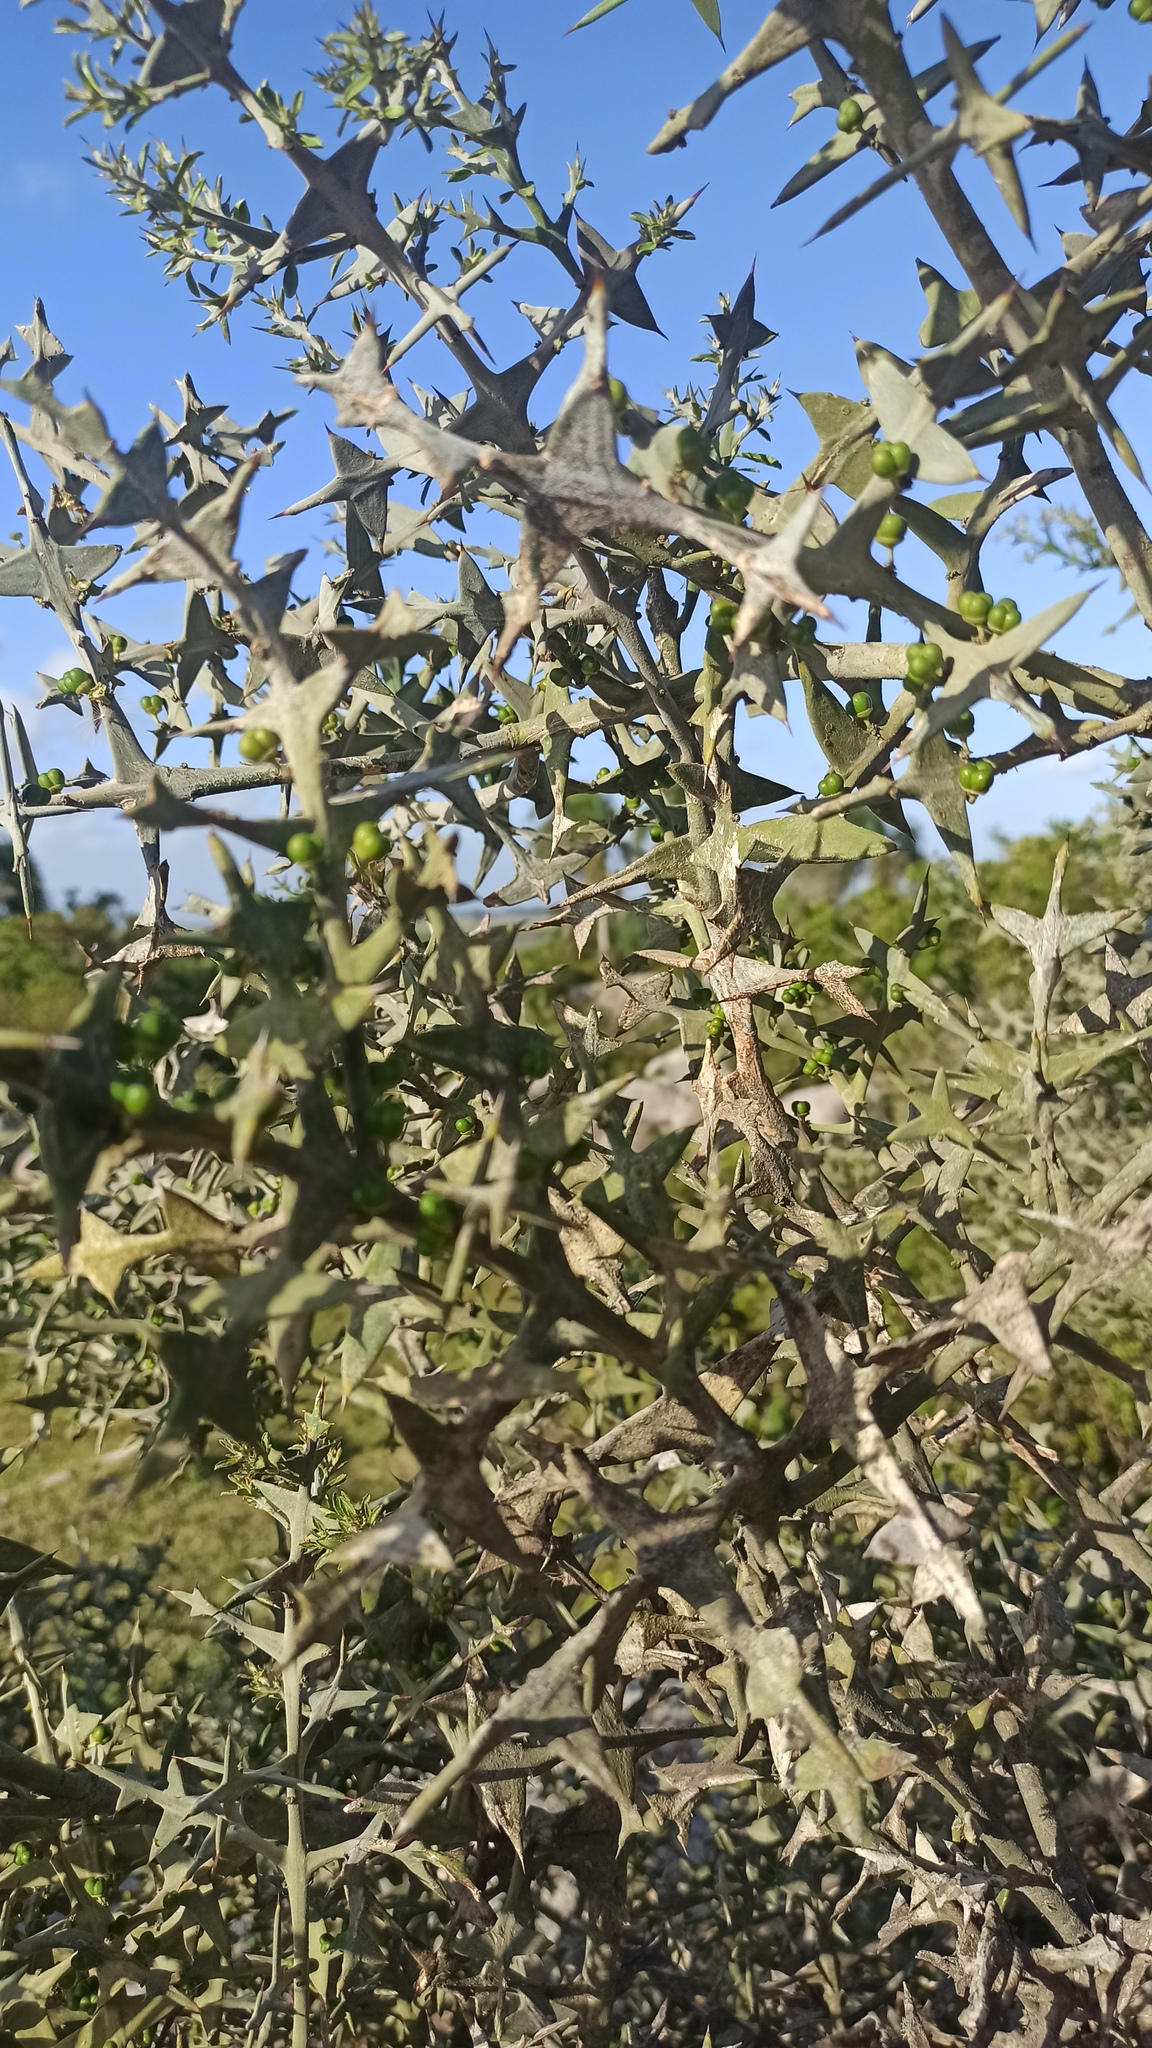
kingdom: Plantae
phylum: Tracheophyta
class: Magnoliopsida
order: Rosales
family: Rhamnaceae
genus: Colletia
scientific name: Colletia paradoxa
